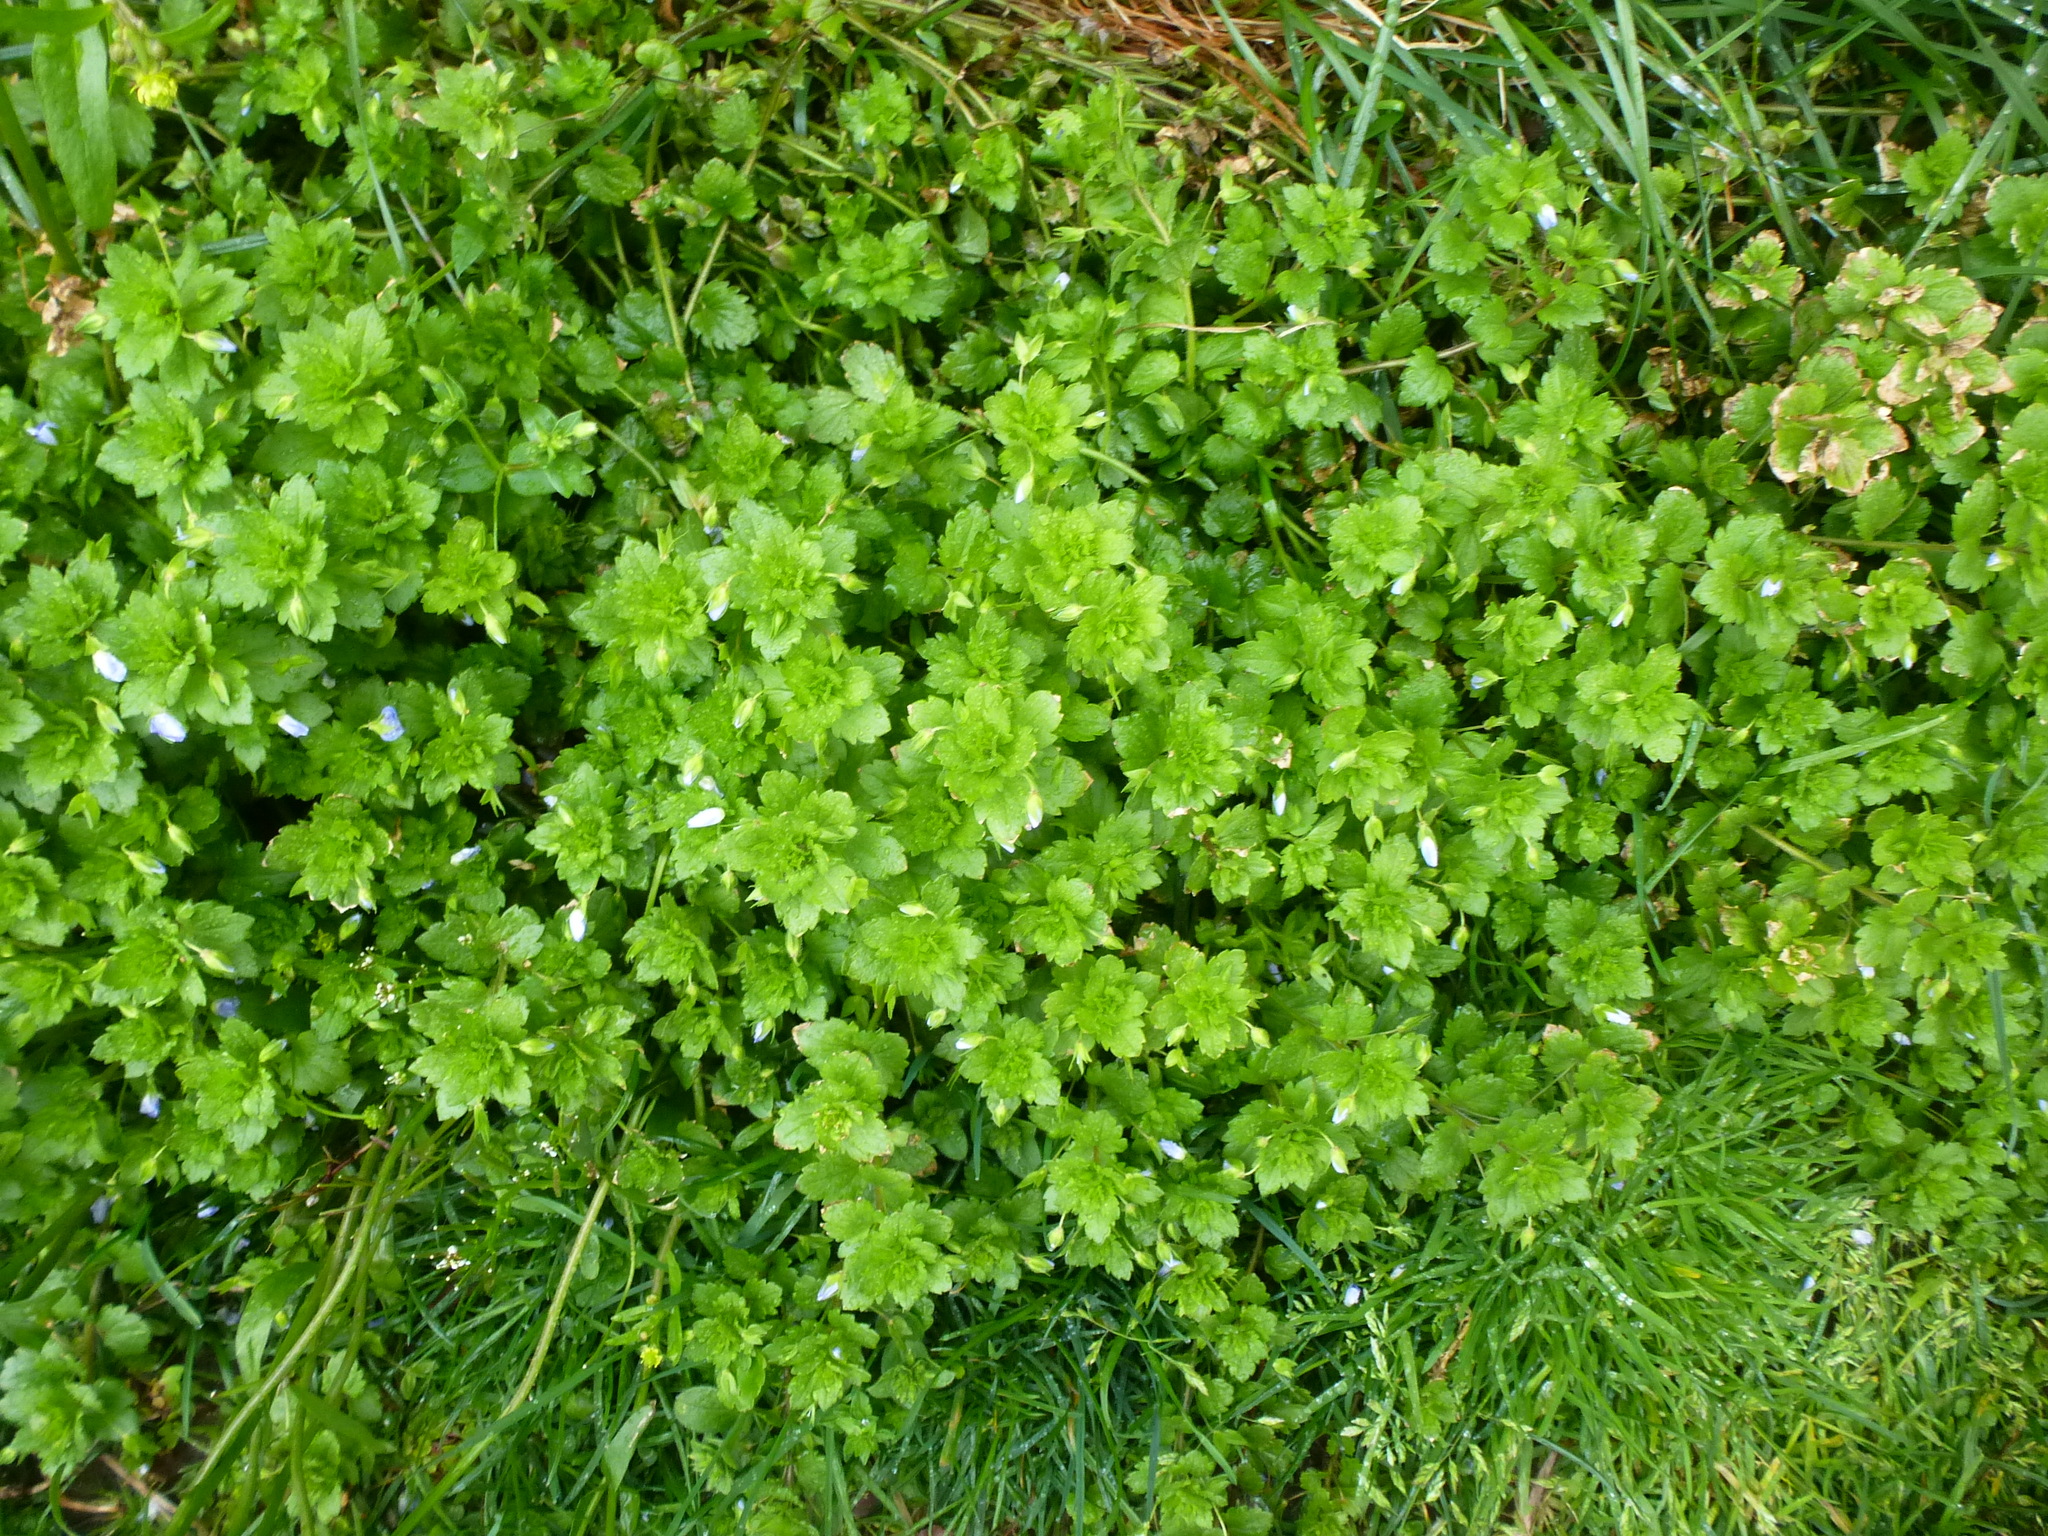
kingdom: Plantae
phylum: Tracheophyta
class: Magnoliopsida
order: Lamiales
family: Plantaginaceae
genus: Veronica
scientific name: Veronica persica
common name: Common field-speedwell
